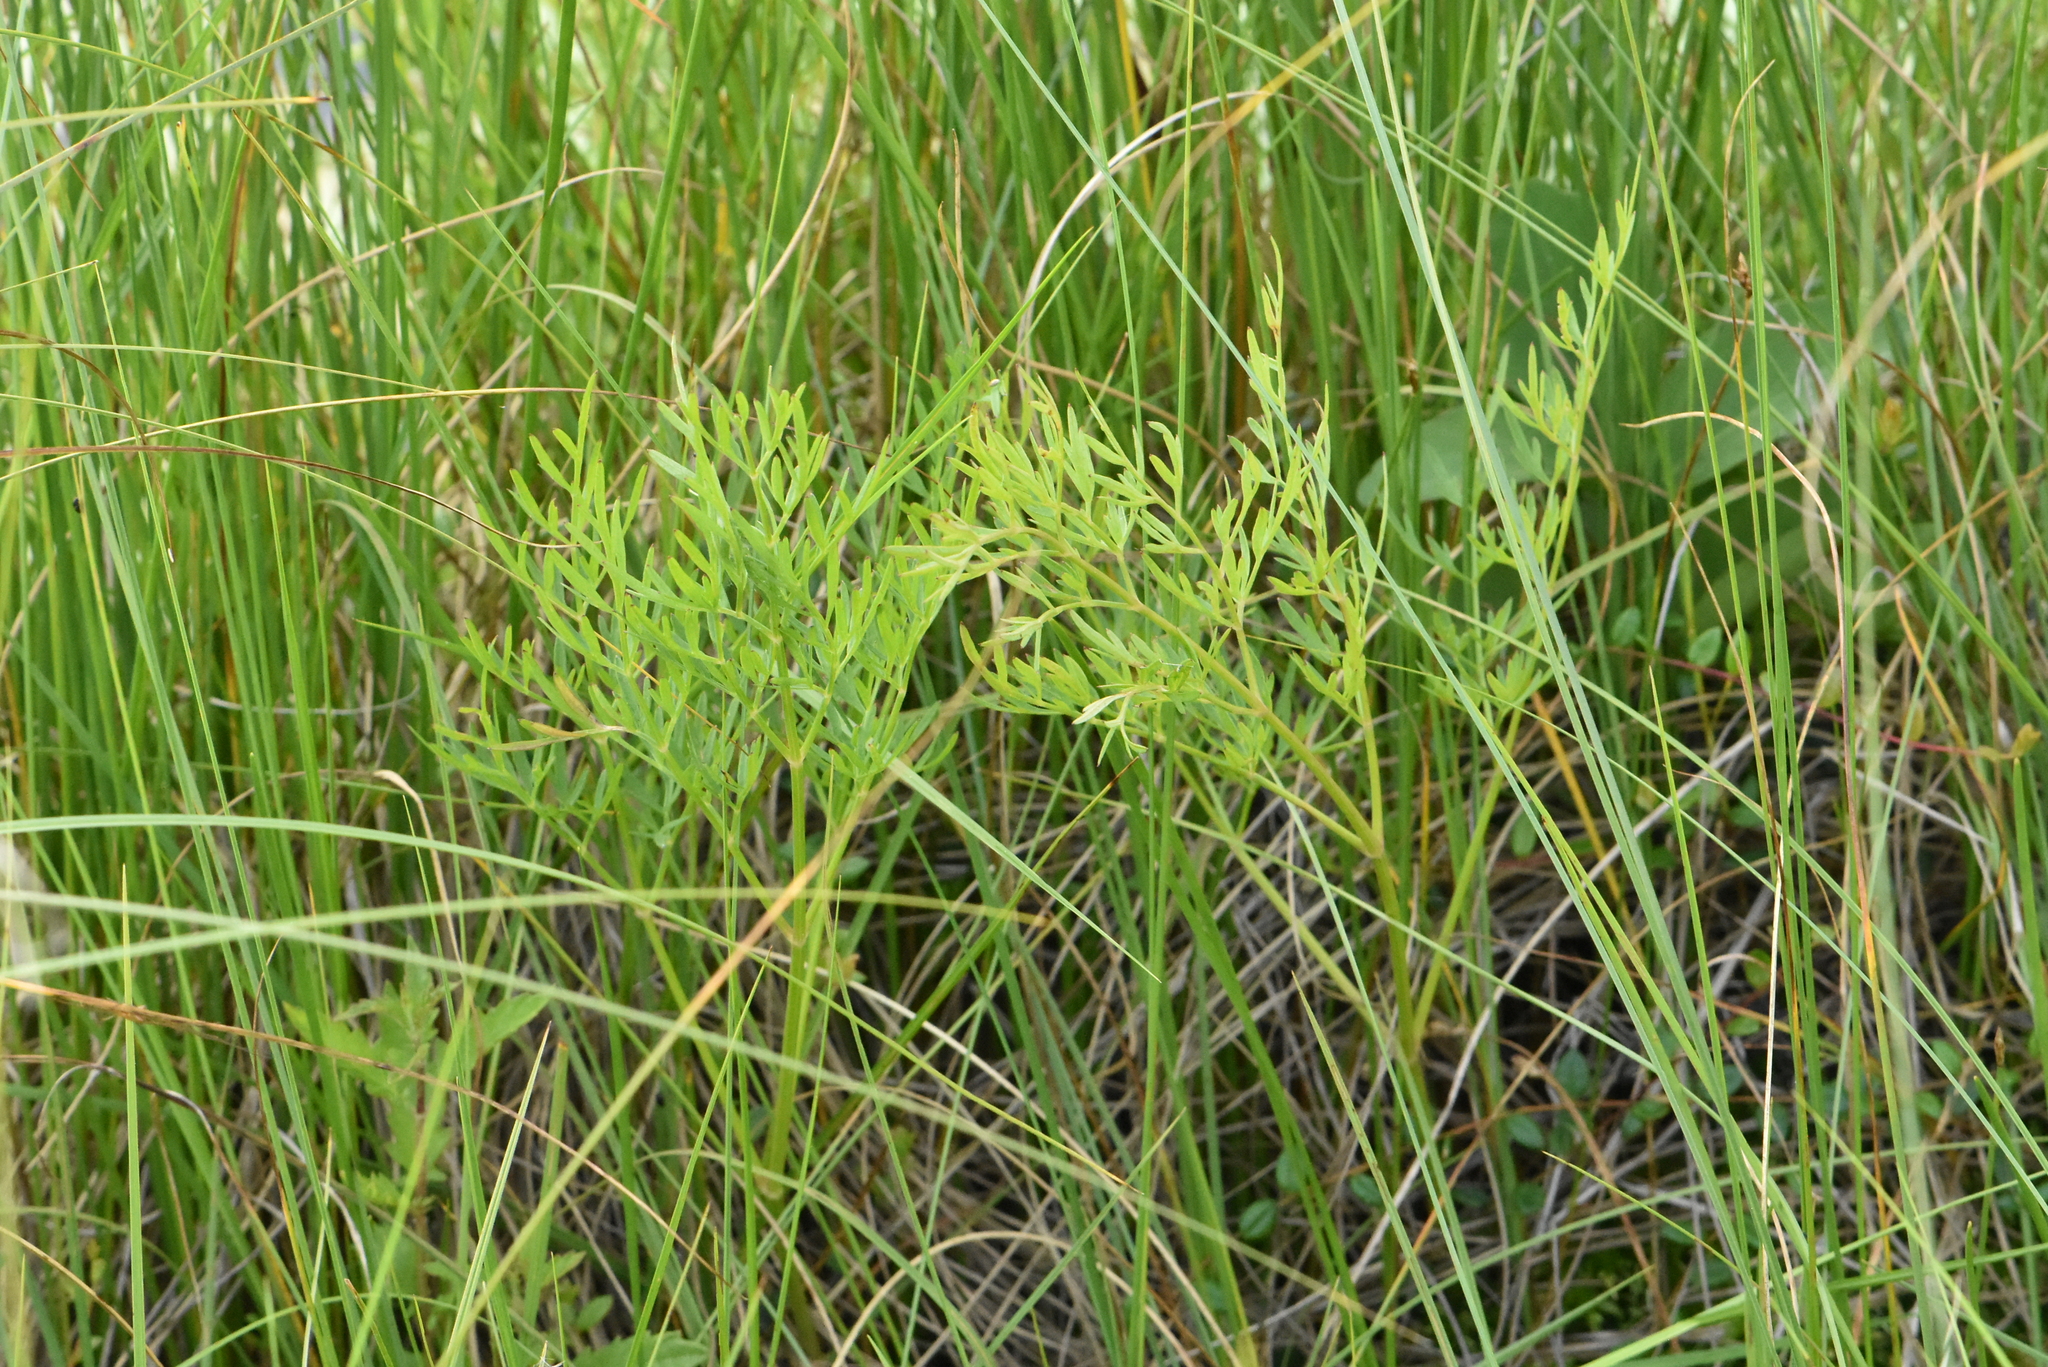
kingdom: Plantae
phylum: Tracheophyta
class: Magnoliopsida
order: Apiales
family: Apiaceae
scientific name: Apiaceae
